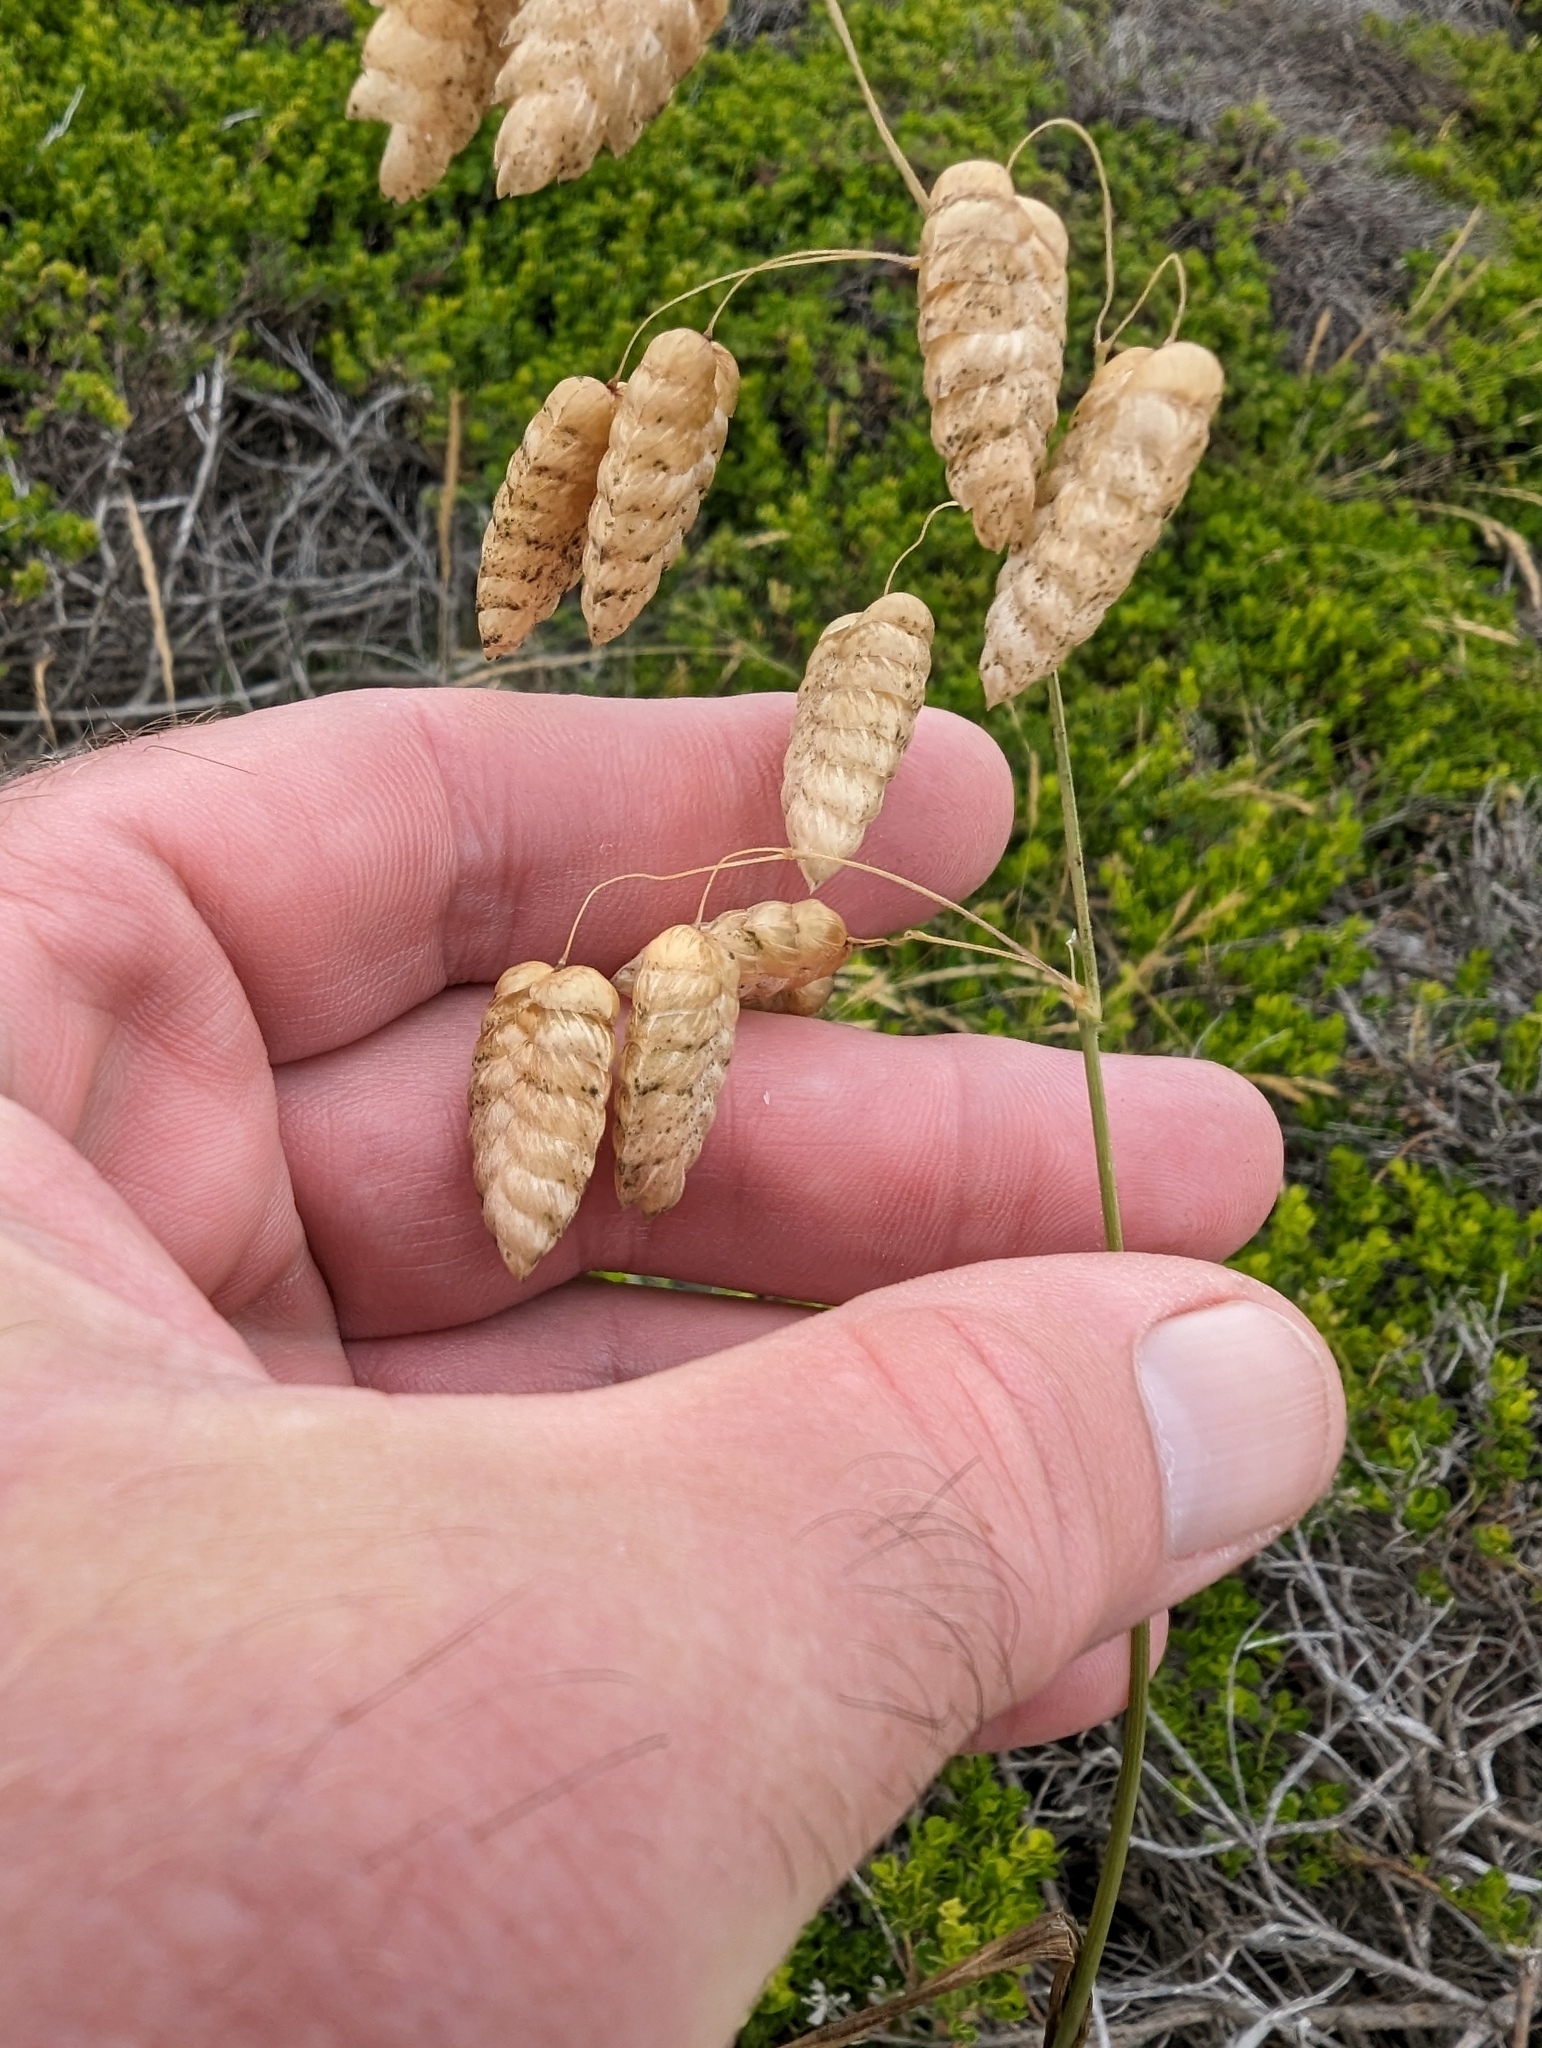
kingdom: Plantae
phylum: Tracheophyta
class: Liliopsida
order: Poales
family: Poaceae
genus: Briza
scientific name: Briza maxima
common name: Big quakinggrass
